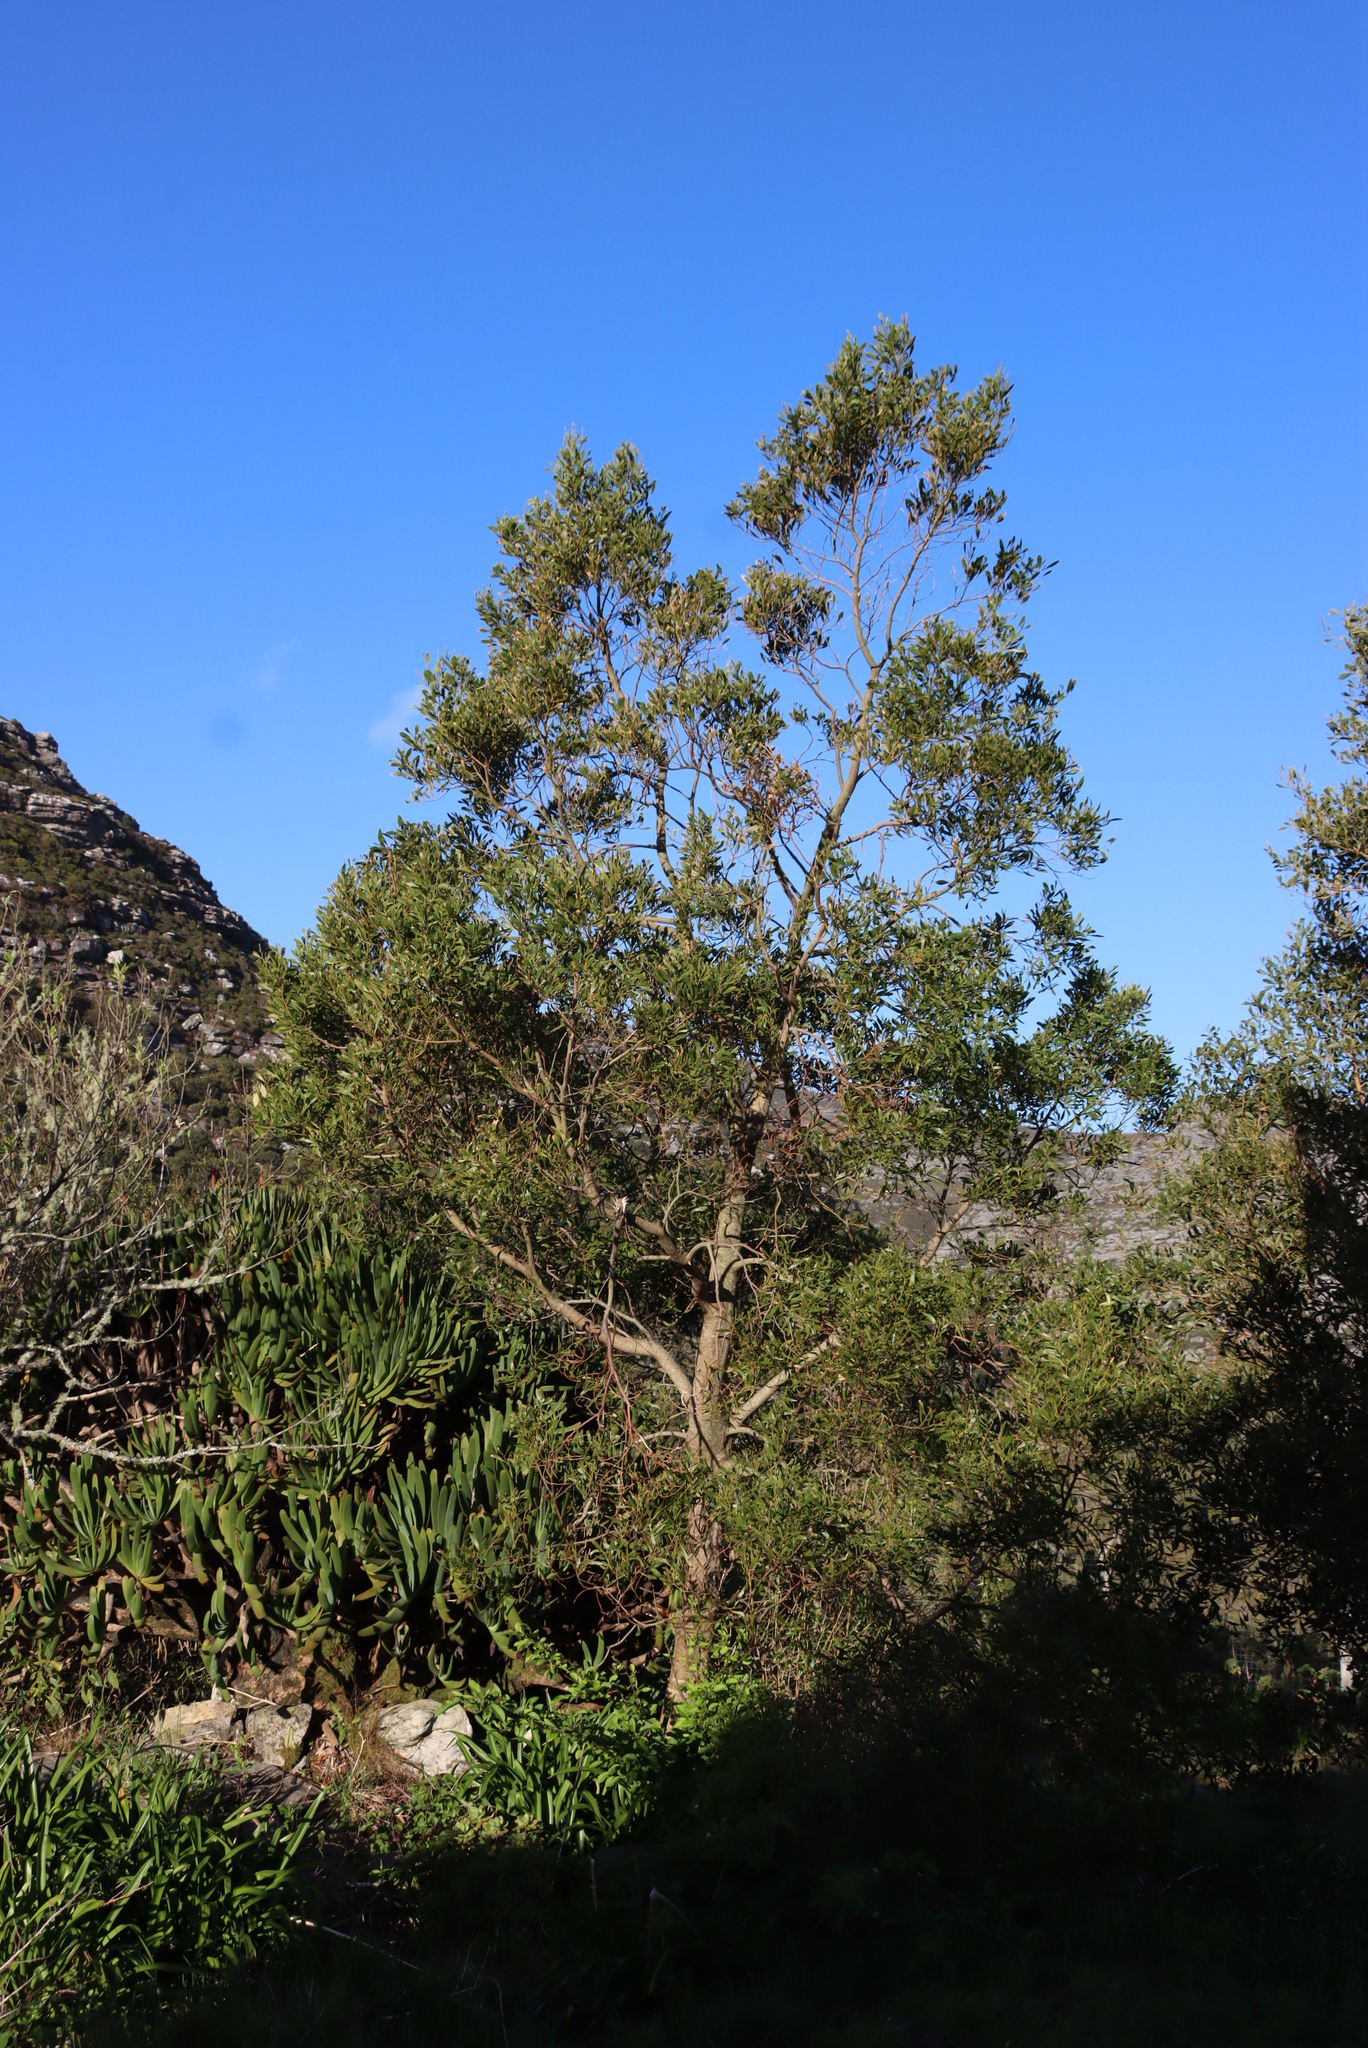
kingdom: Plantae
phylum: Tracheophyta
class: Magnoliopsida
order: Fabales
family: Fabaceae
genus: Acacia
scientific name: Acacia melanoxylon
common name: Blackwood
